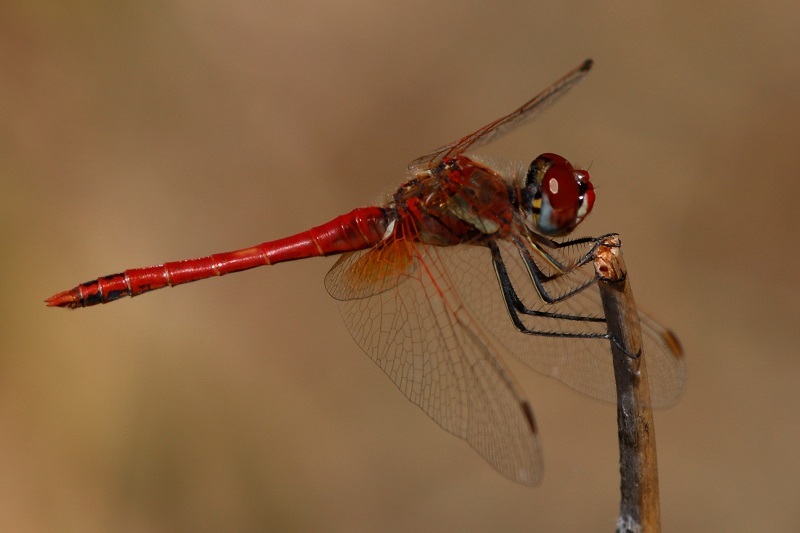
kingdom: Animalia
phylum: Arthropoda
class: Insecta
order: Odonata
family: Libellulidae
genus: Sympetrum
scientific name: Sympetrum fonscolombii
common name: Red-veined darter
